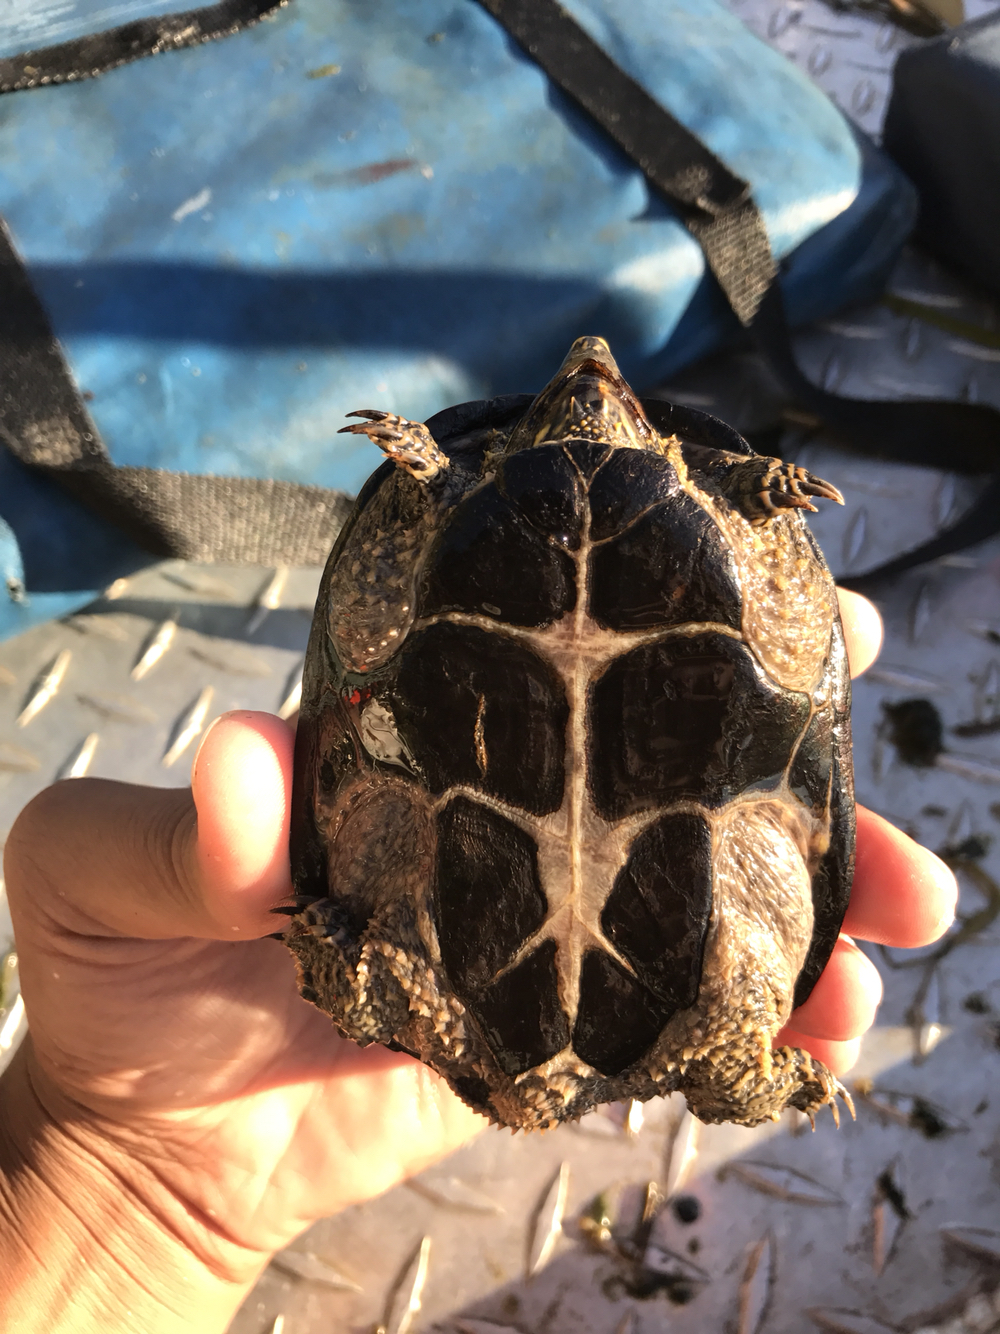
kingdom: Animalia
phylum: Chordata
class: Testudines
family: Kinosternidae
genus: Sternotherus
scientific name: Sternotherus odoratus
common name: Common musk turtle
